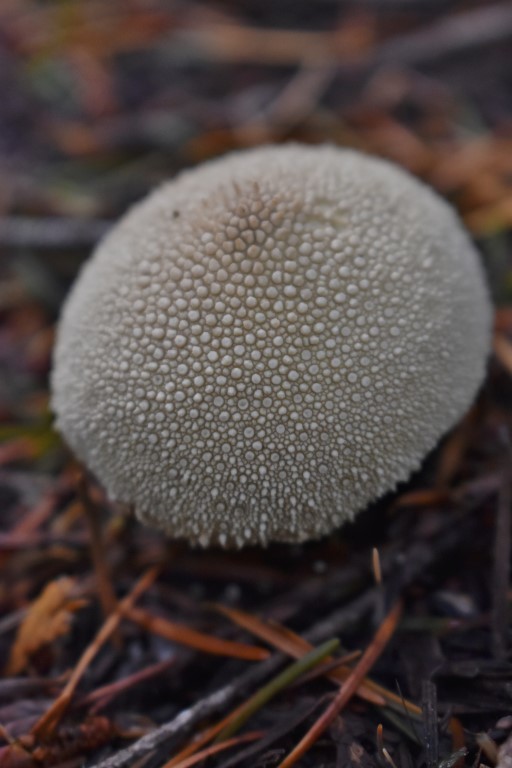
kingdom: Fungi
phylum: Basidiomycota
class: Agaricomycetes
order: Agaricales
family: Lycoperdaceae
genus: Lycoperdon
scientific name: Lycoperdon perlatum
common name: Common puffball
